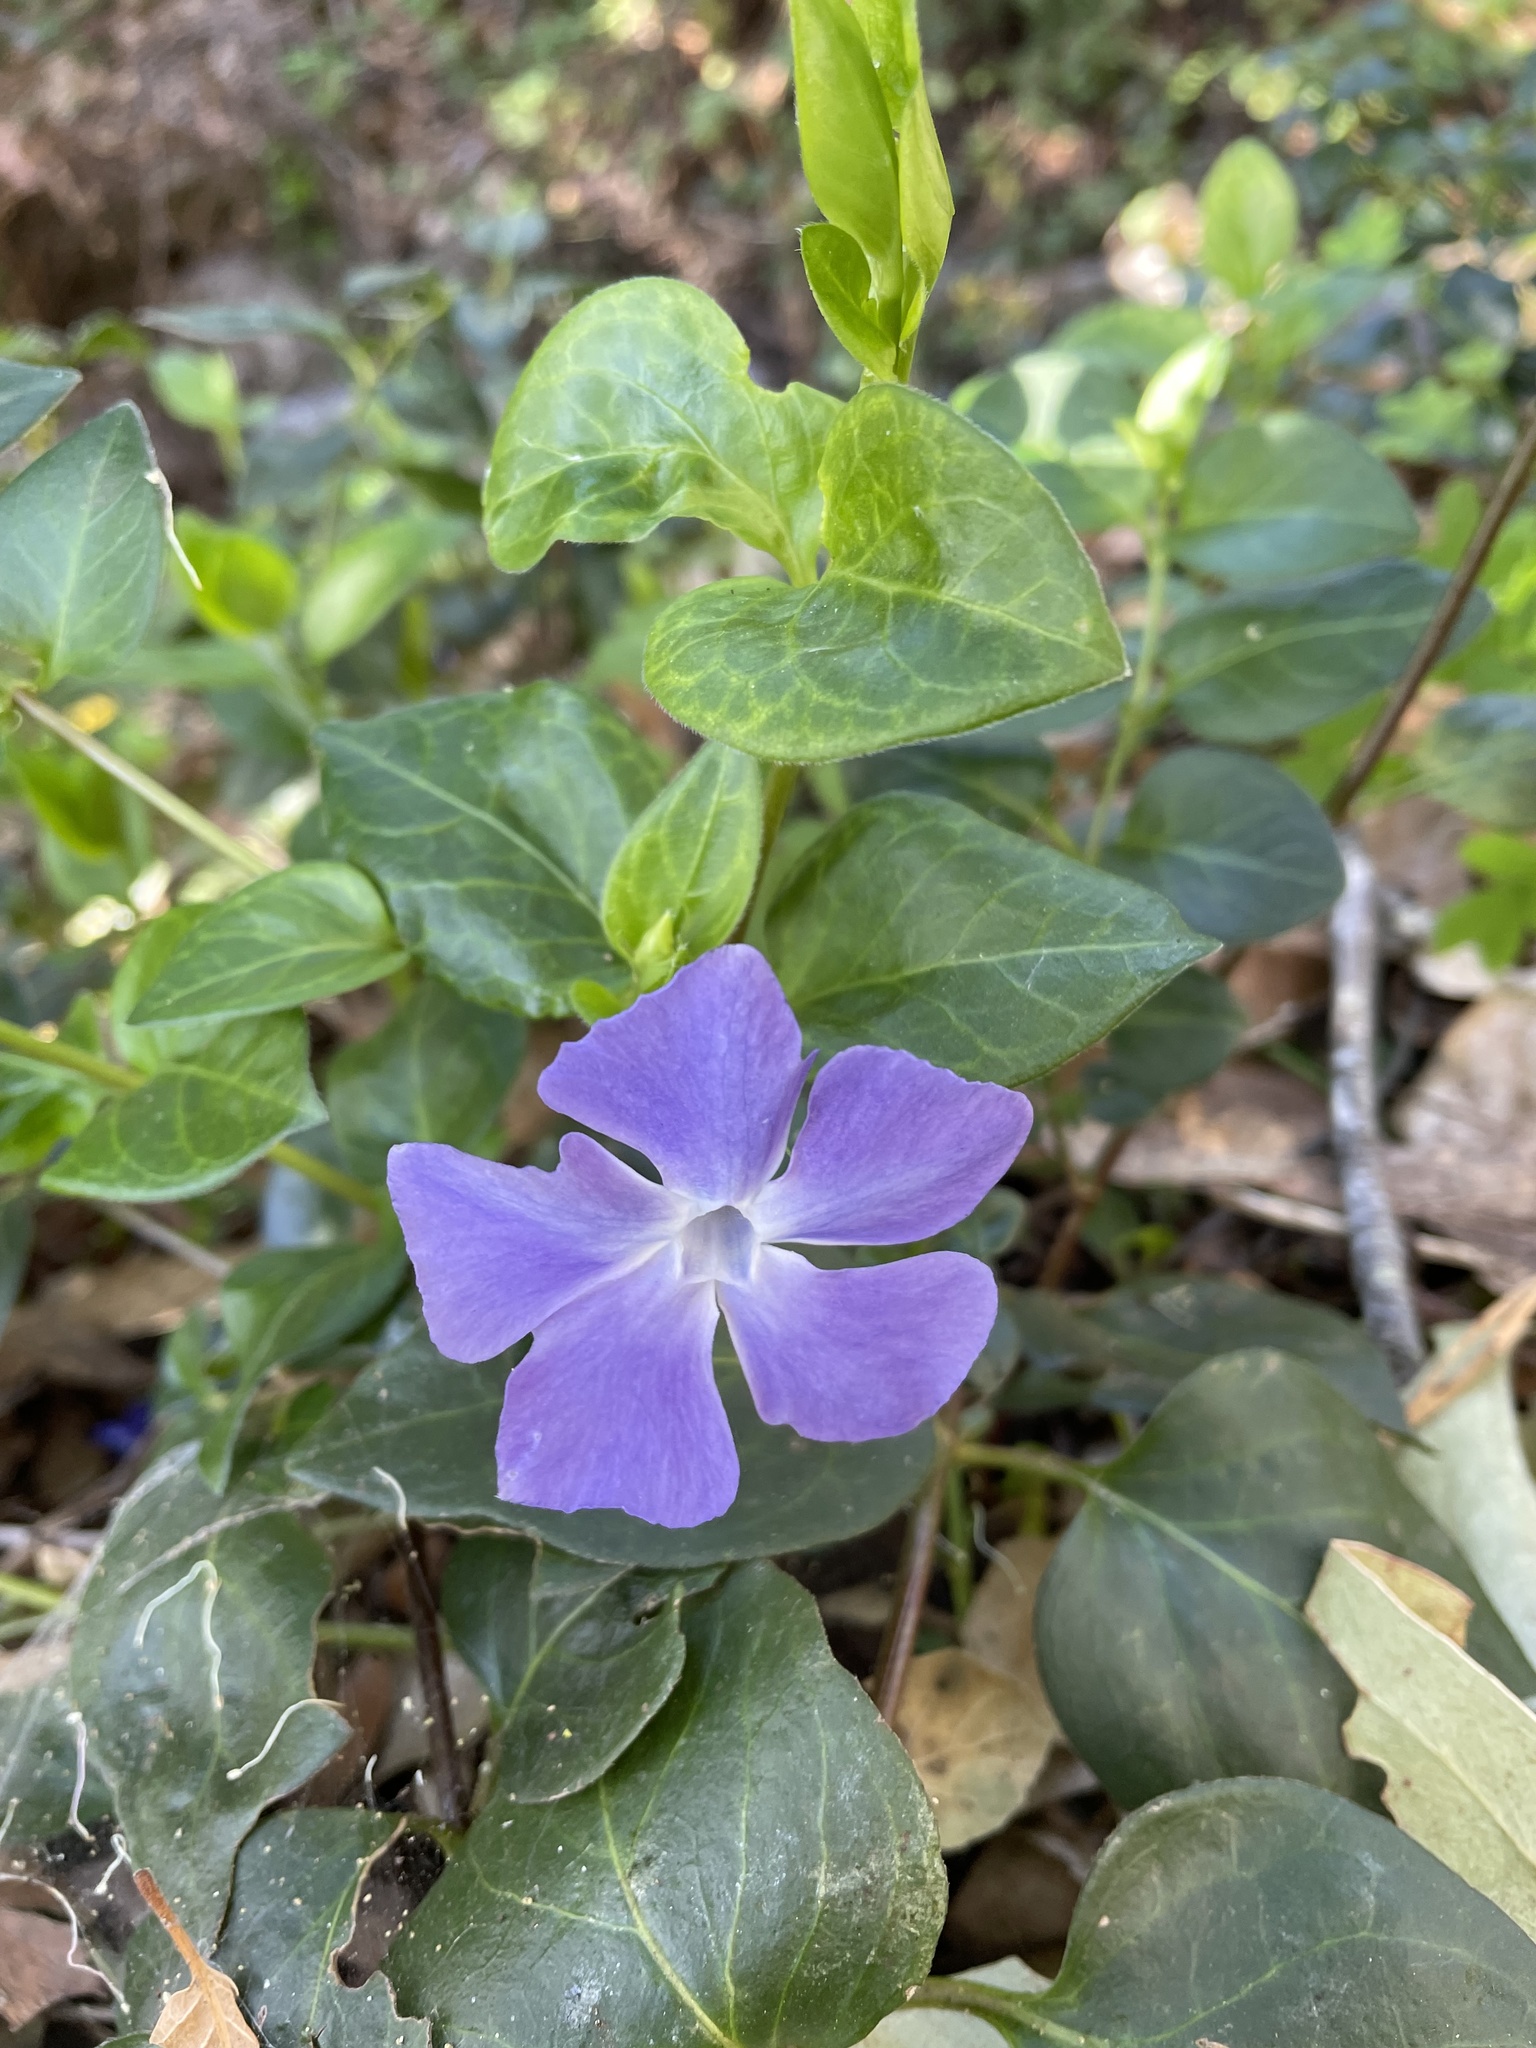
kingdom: Plantae
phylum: Tracheophyta
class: Magnoliopsida
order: Gentianales
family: Apocynaceae
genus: Vinca
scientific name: Vinca major
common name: Greater periwinkle
